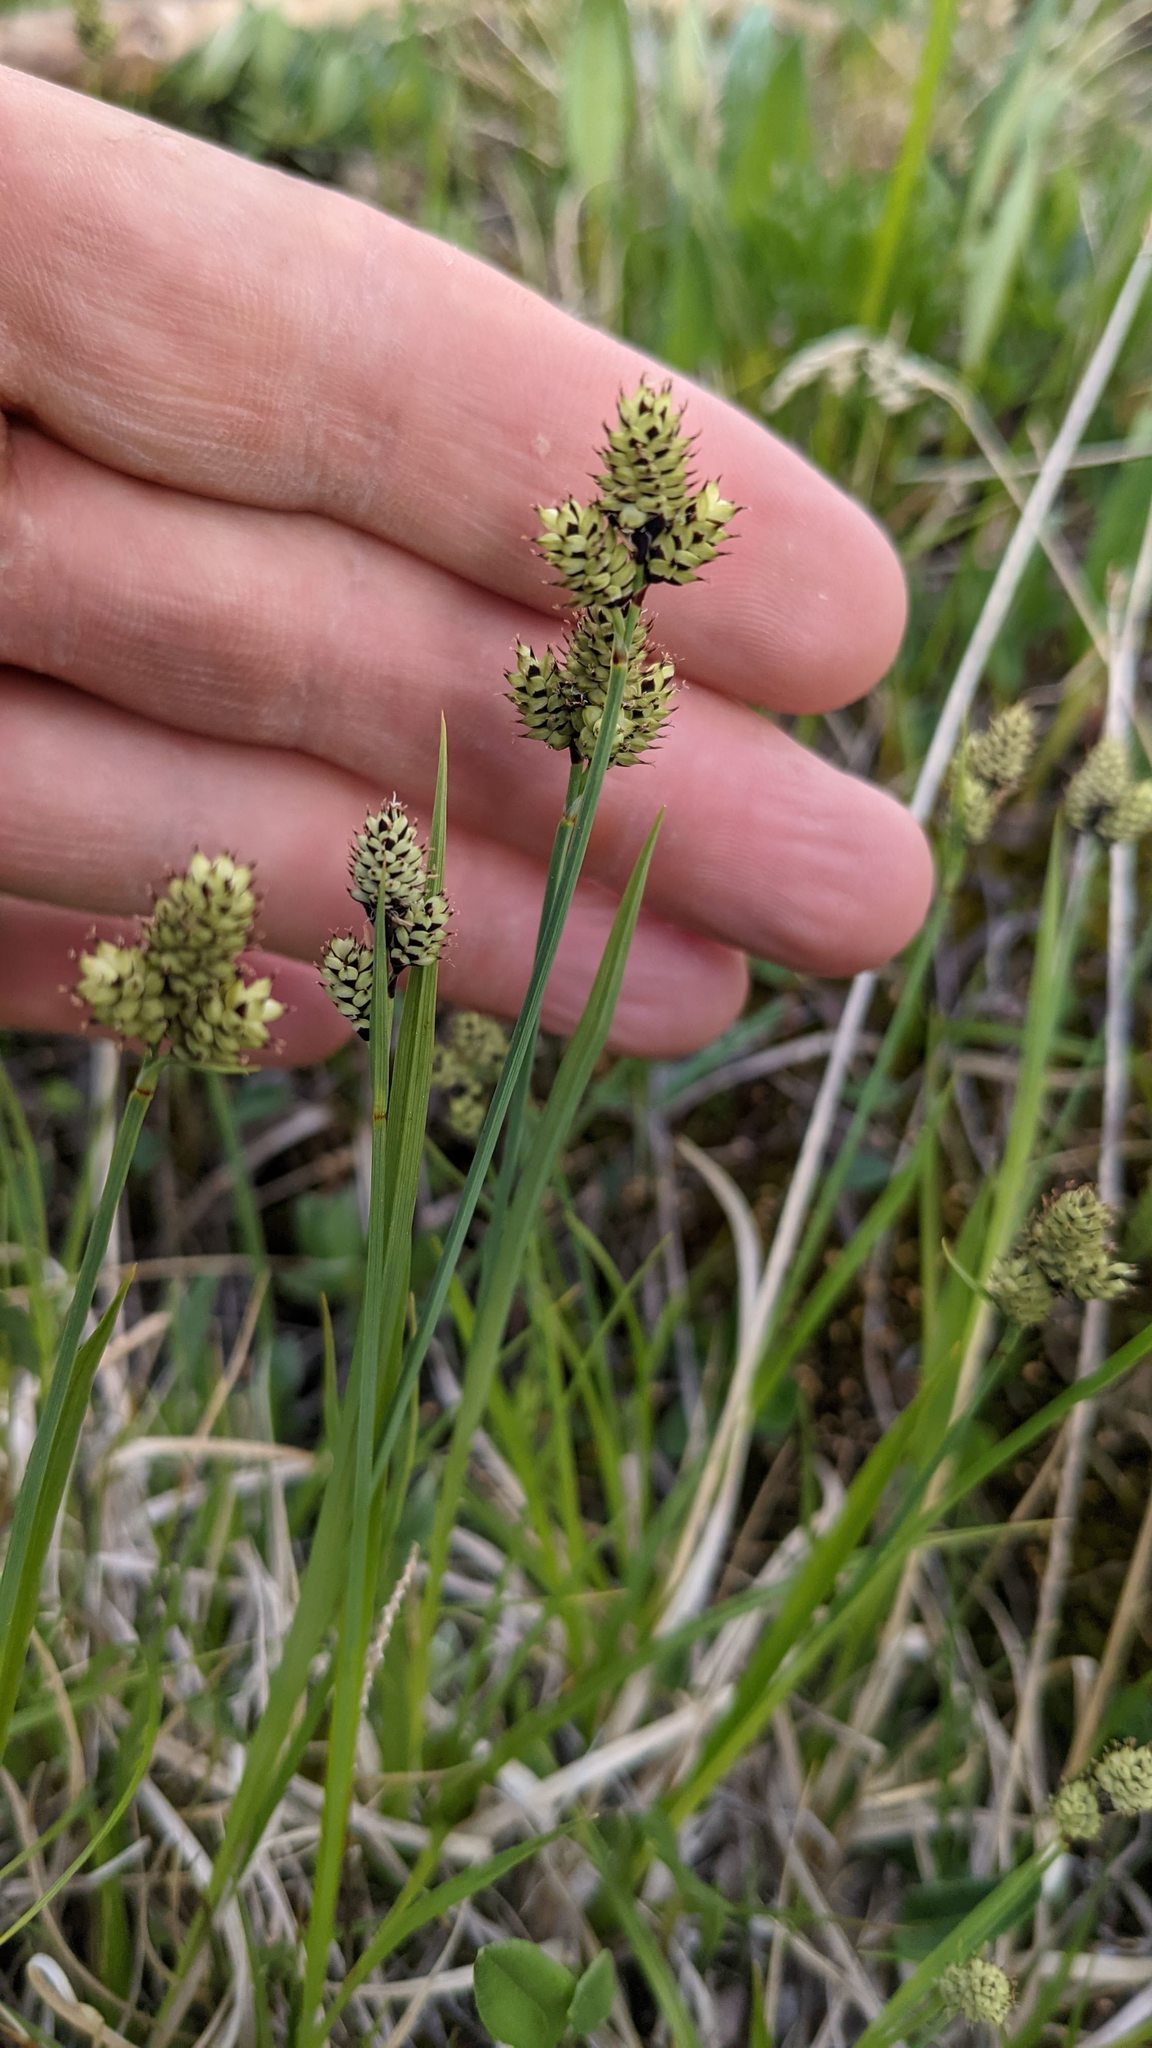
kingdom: Plantae
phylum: Tracheophyta
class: Liliopsida
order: Poales
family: Cyperaceae
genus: Carex
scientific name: Carex media
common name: Alpine sedge
